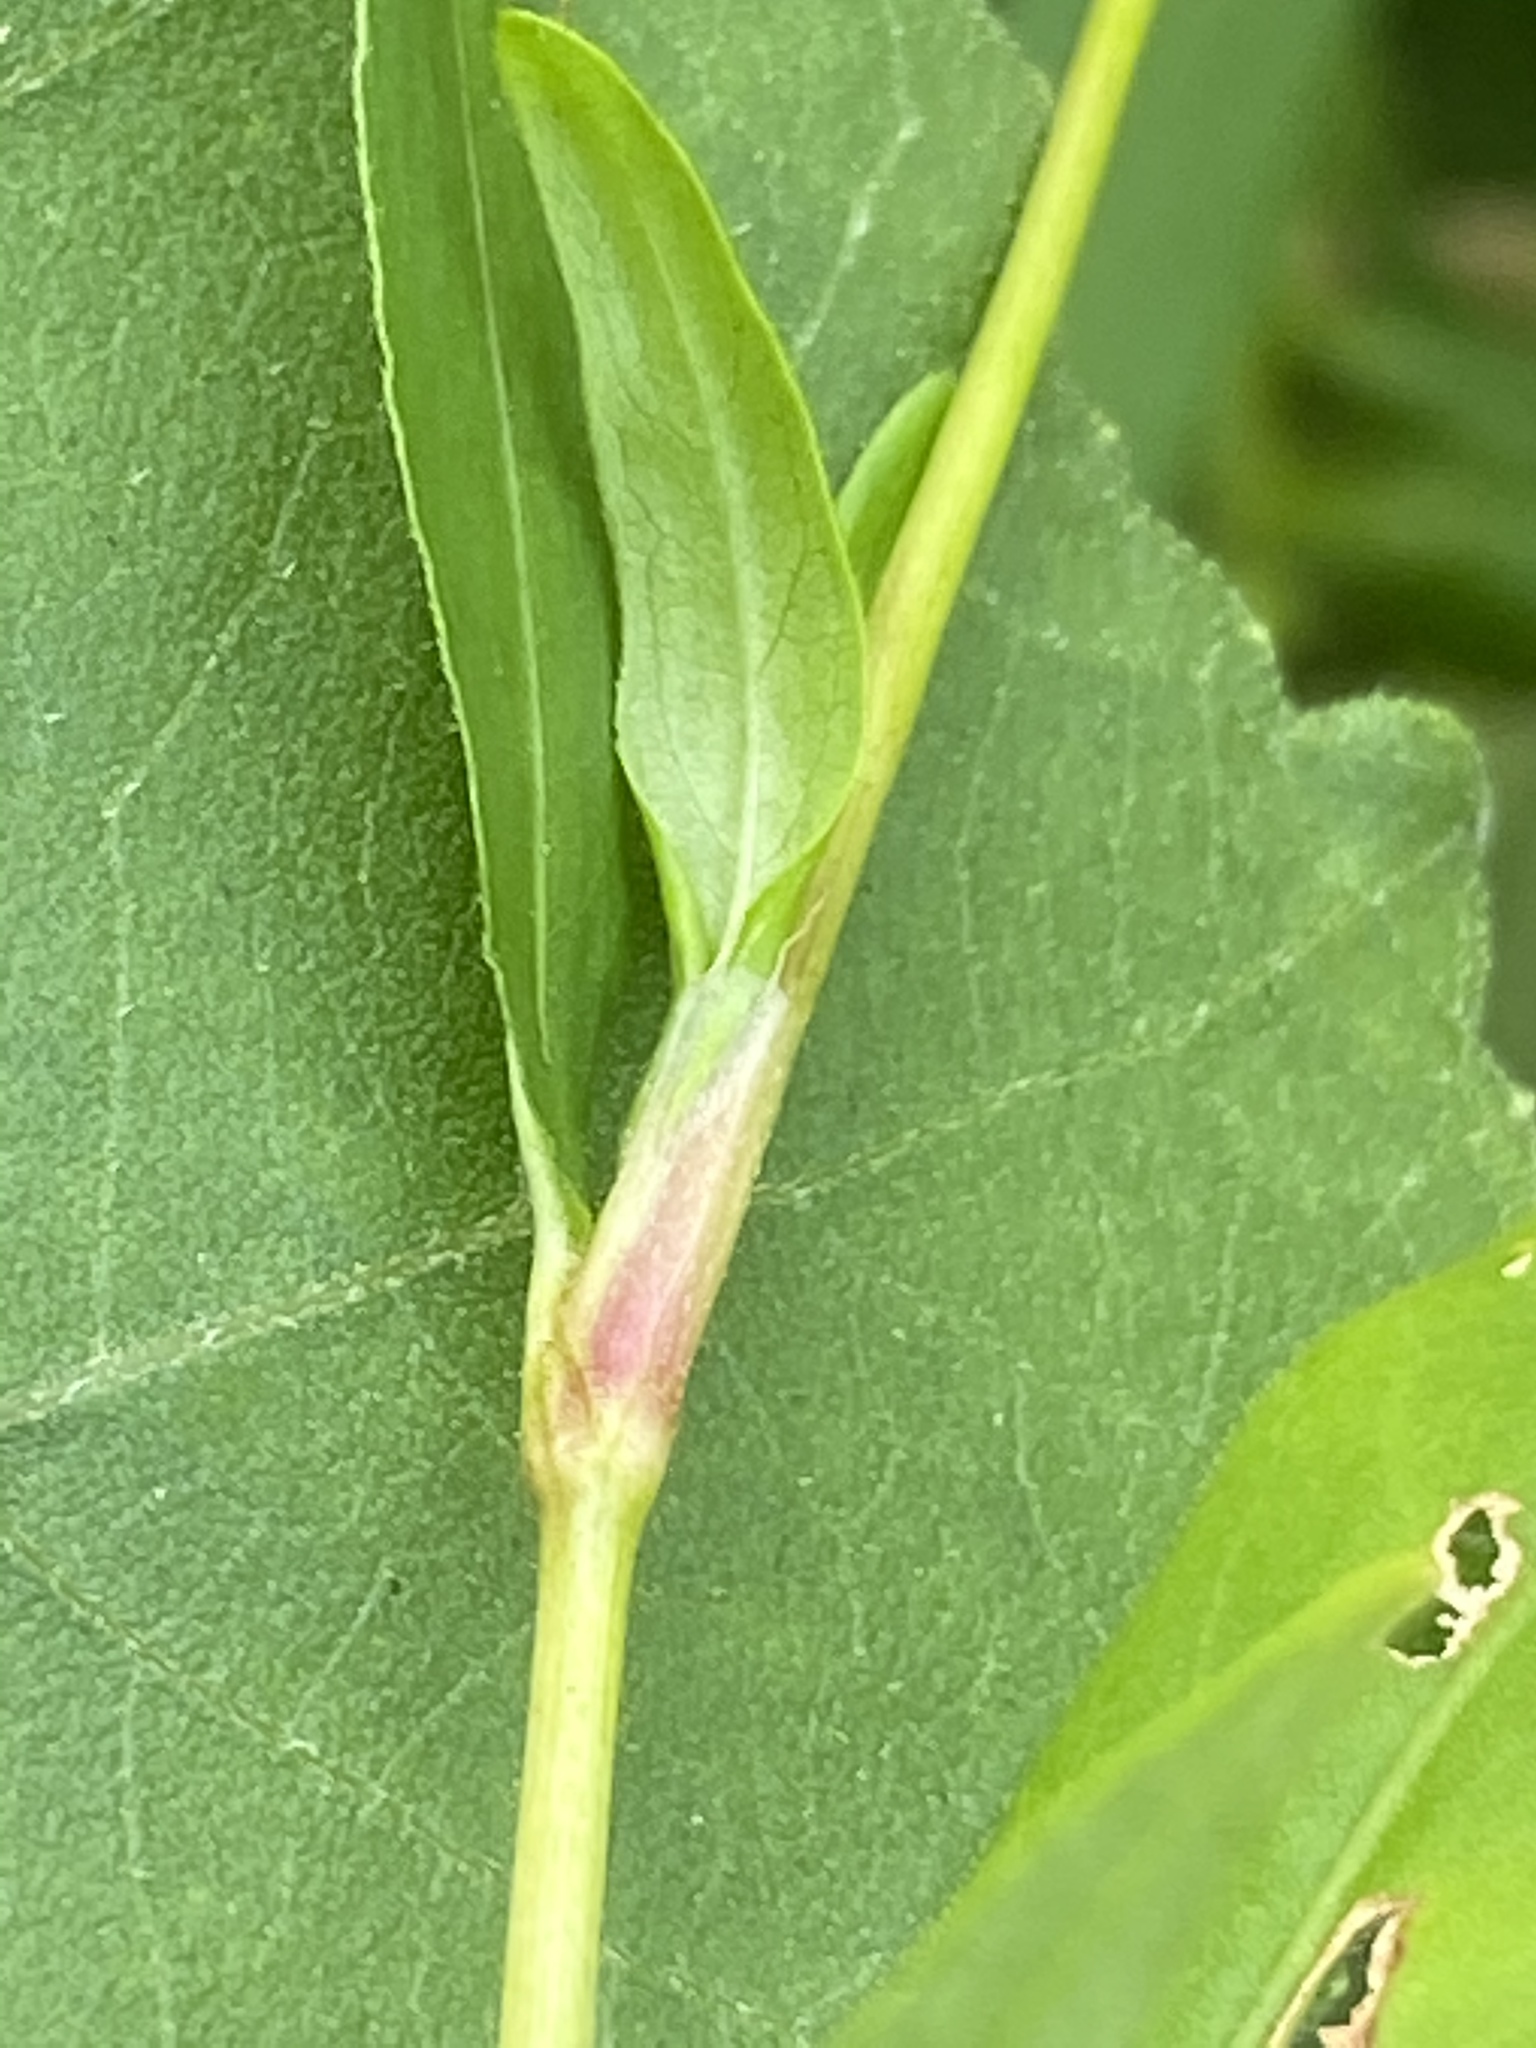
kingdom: Plantae
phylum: Tracheophyta
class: Magnoliopsida
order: Caryophyllales
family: Polygonaceae
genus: Persicaria
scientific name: Persicaria punctata
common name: Dotted smartweed
